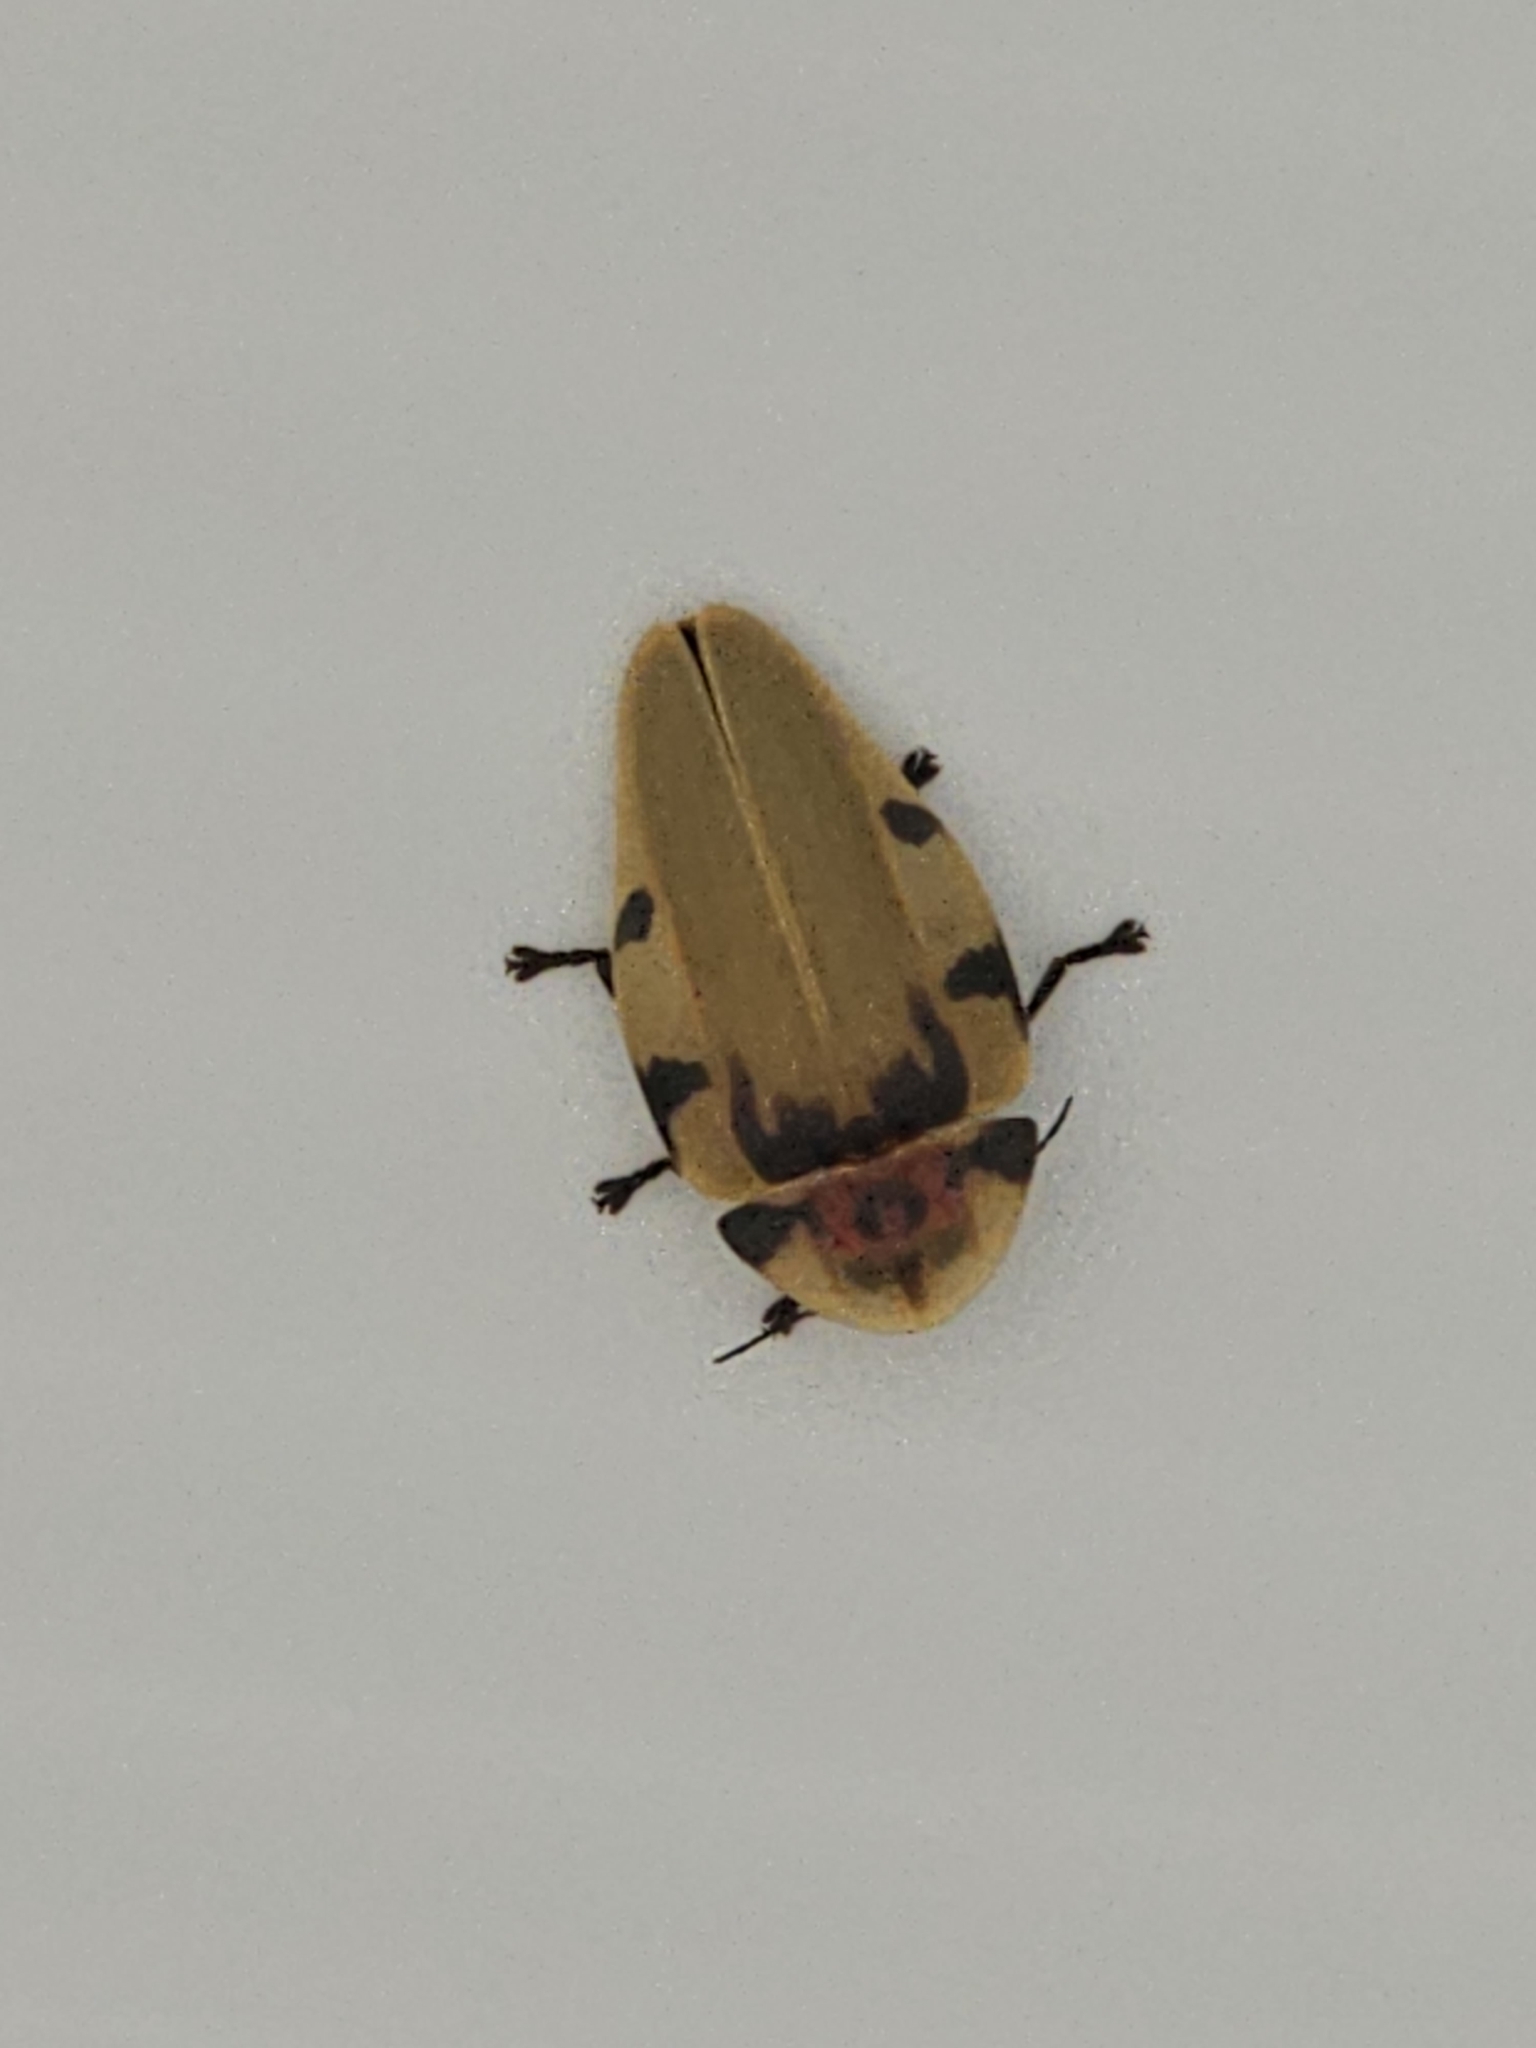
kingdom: Animalia
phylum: Arthropoda
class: Insecta
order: Coleoptera
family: Lampyridae
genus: Aspisoma
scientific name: Aspisoma sticticum
